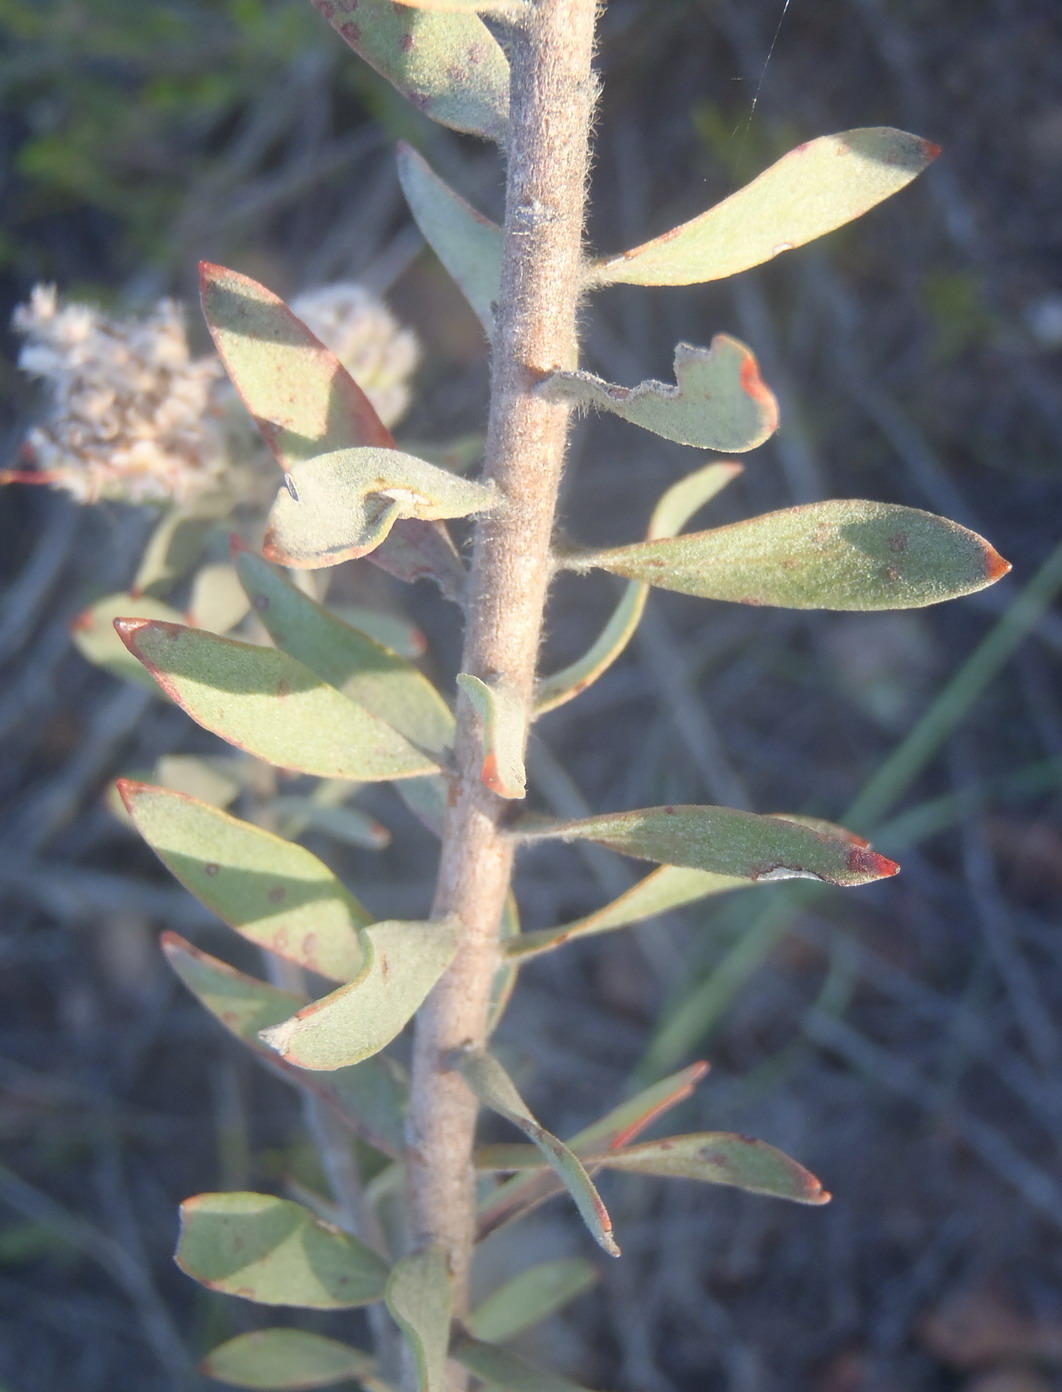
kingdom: Plantae
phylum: Tracheophyta
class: Magnoliopsida
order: Proteales
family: Proteaceae
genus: Leucospermum
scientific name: Leucospermum wittebergense
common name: Swartberg pincushion
